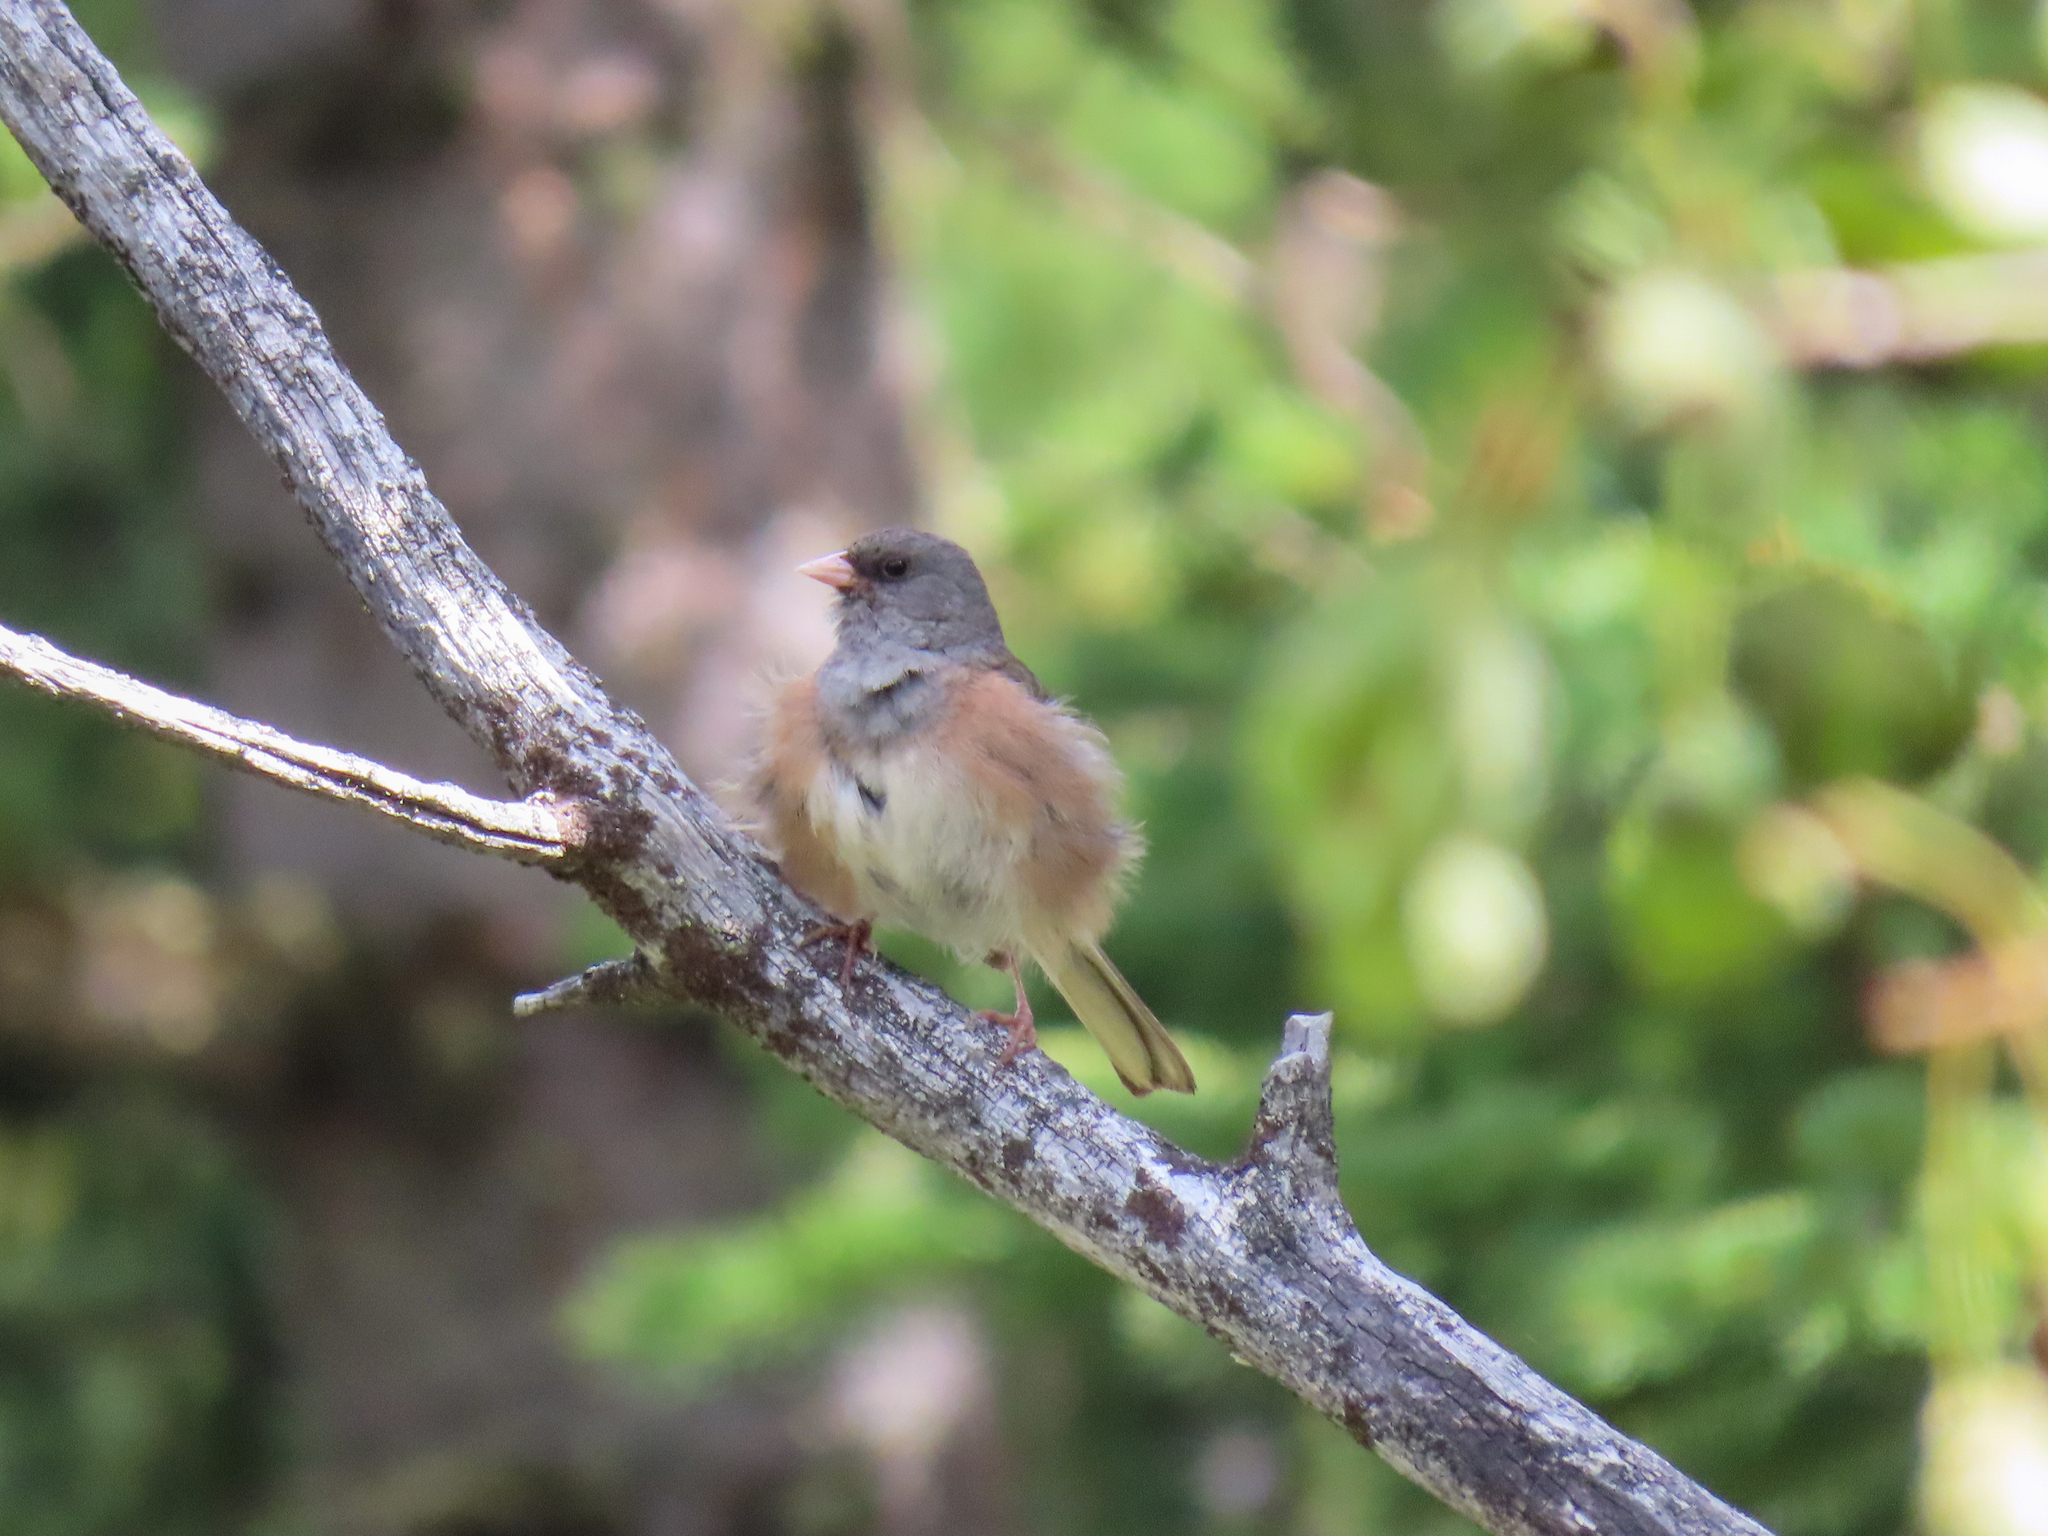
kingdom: Animalia
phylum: Chordata
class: Aves
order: Passeriformes
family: Passerellidae
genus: Junco
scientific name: Junco hyemalis
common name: Dark-eyed junco
